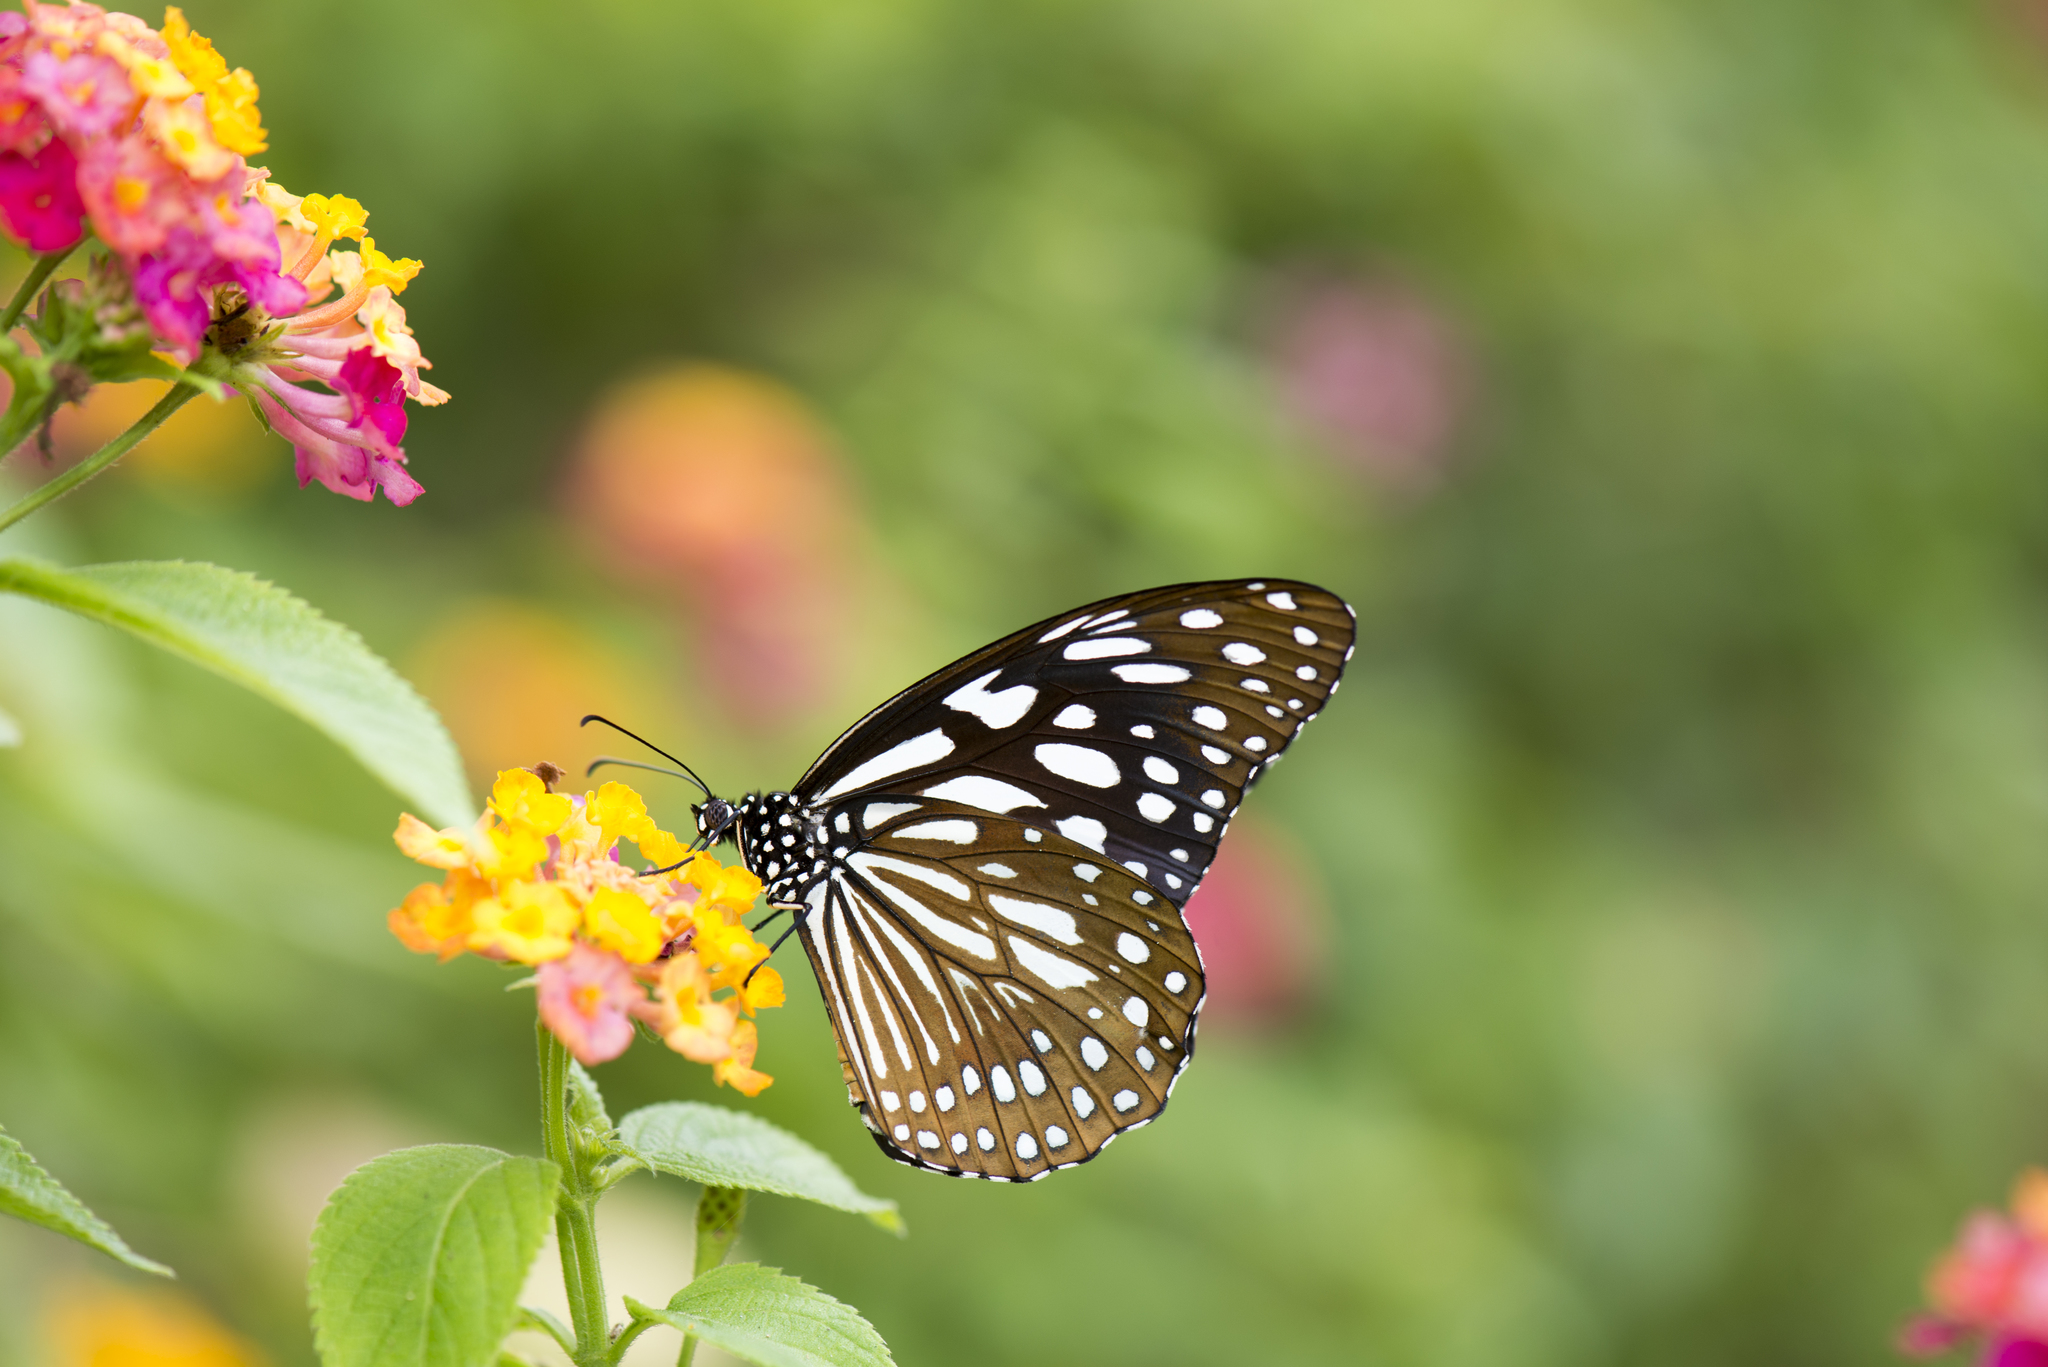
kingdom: Animalia
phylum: Arthropoda
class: Insecta
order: Lepidoptera
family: Nymphalidae
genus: Tirumala
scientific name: Tirumala limniace
